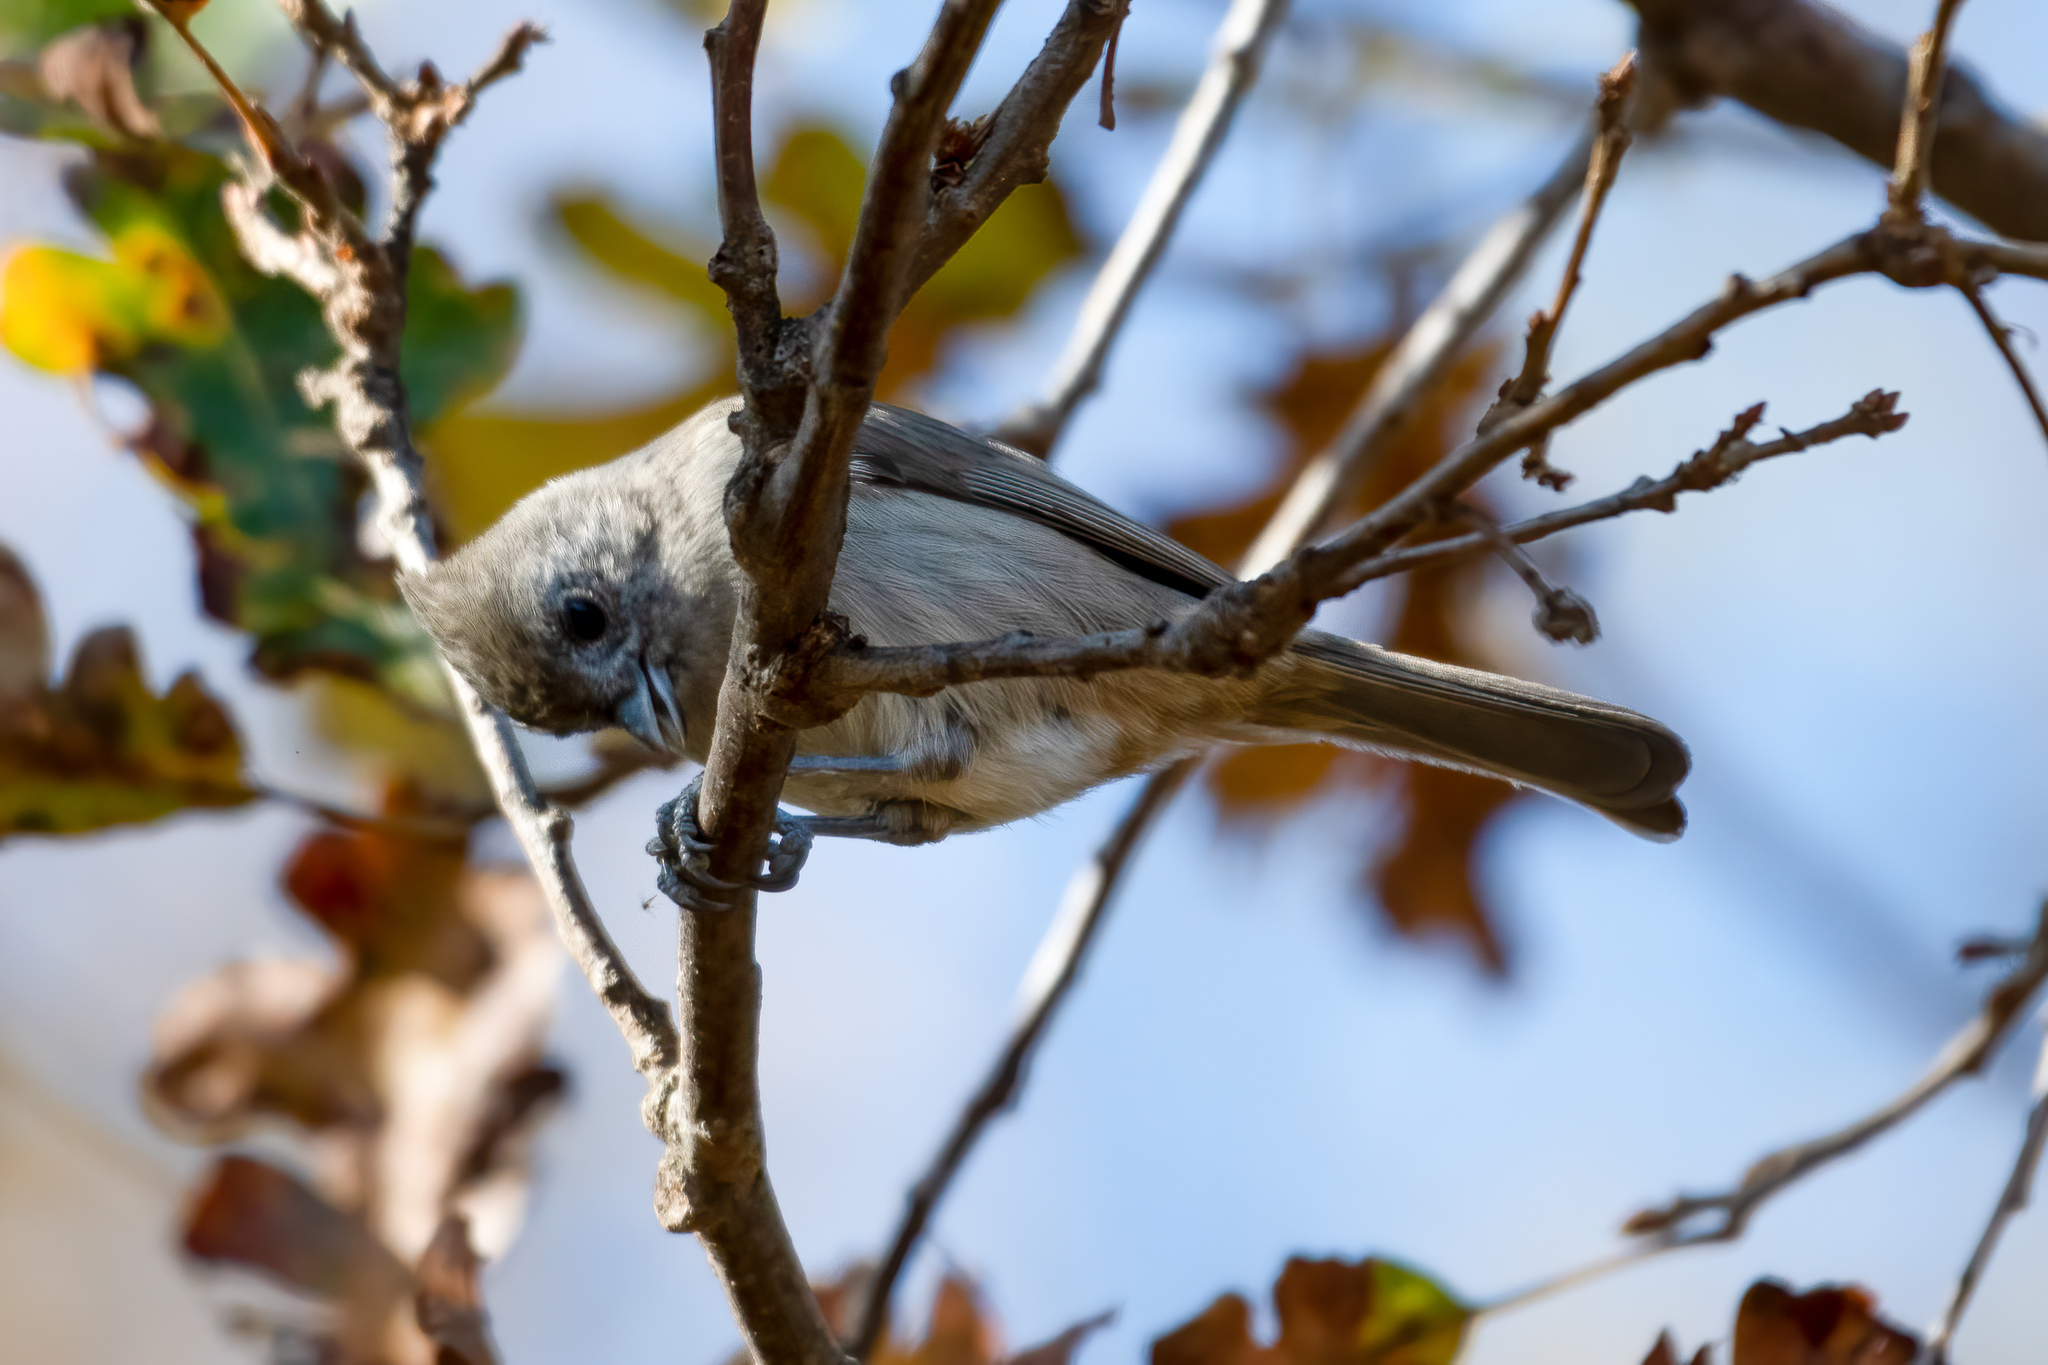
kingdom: Animalia
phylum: Chordata
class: Aves
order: Passeriformes
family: Paridae
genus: Baeolophus
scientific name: Baeolophus inornatus
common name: Oak titmouse
